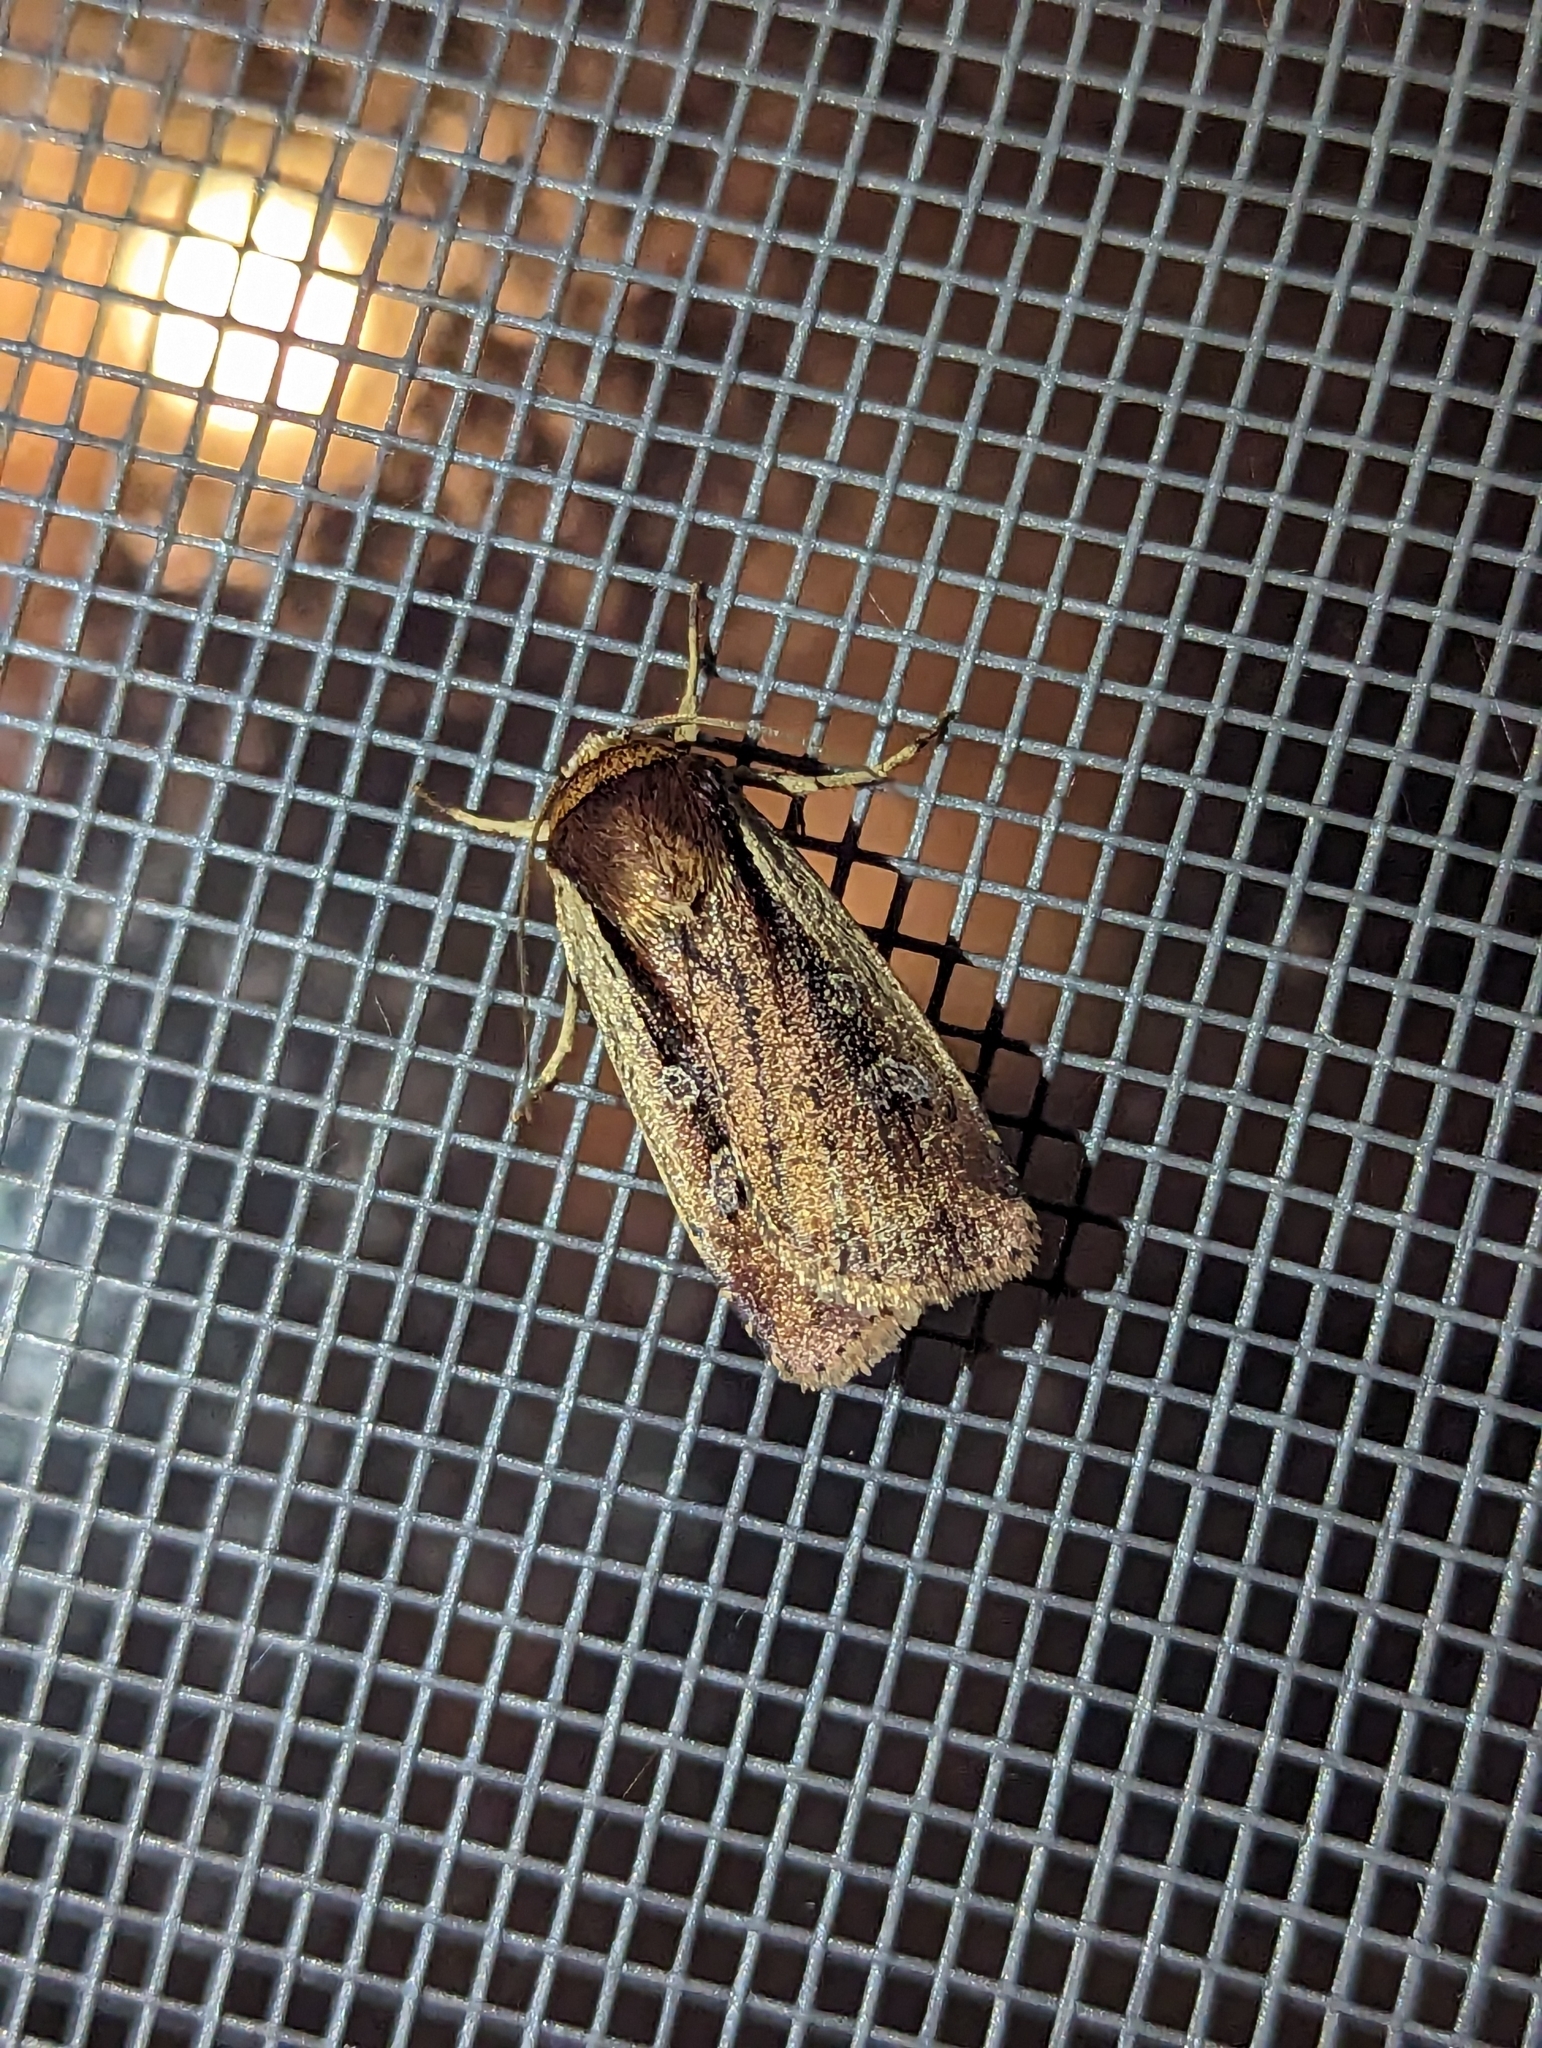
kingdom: Animalia
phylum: Arthropoda
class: Insecta
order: Lepidoptera
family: Noctuidae
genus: Ochropleura
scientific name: Ochropleura implecta
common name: Flame-shouldered dart
